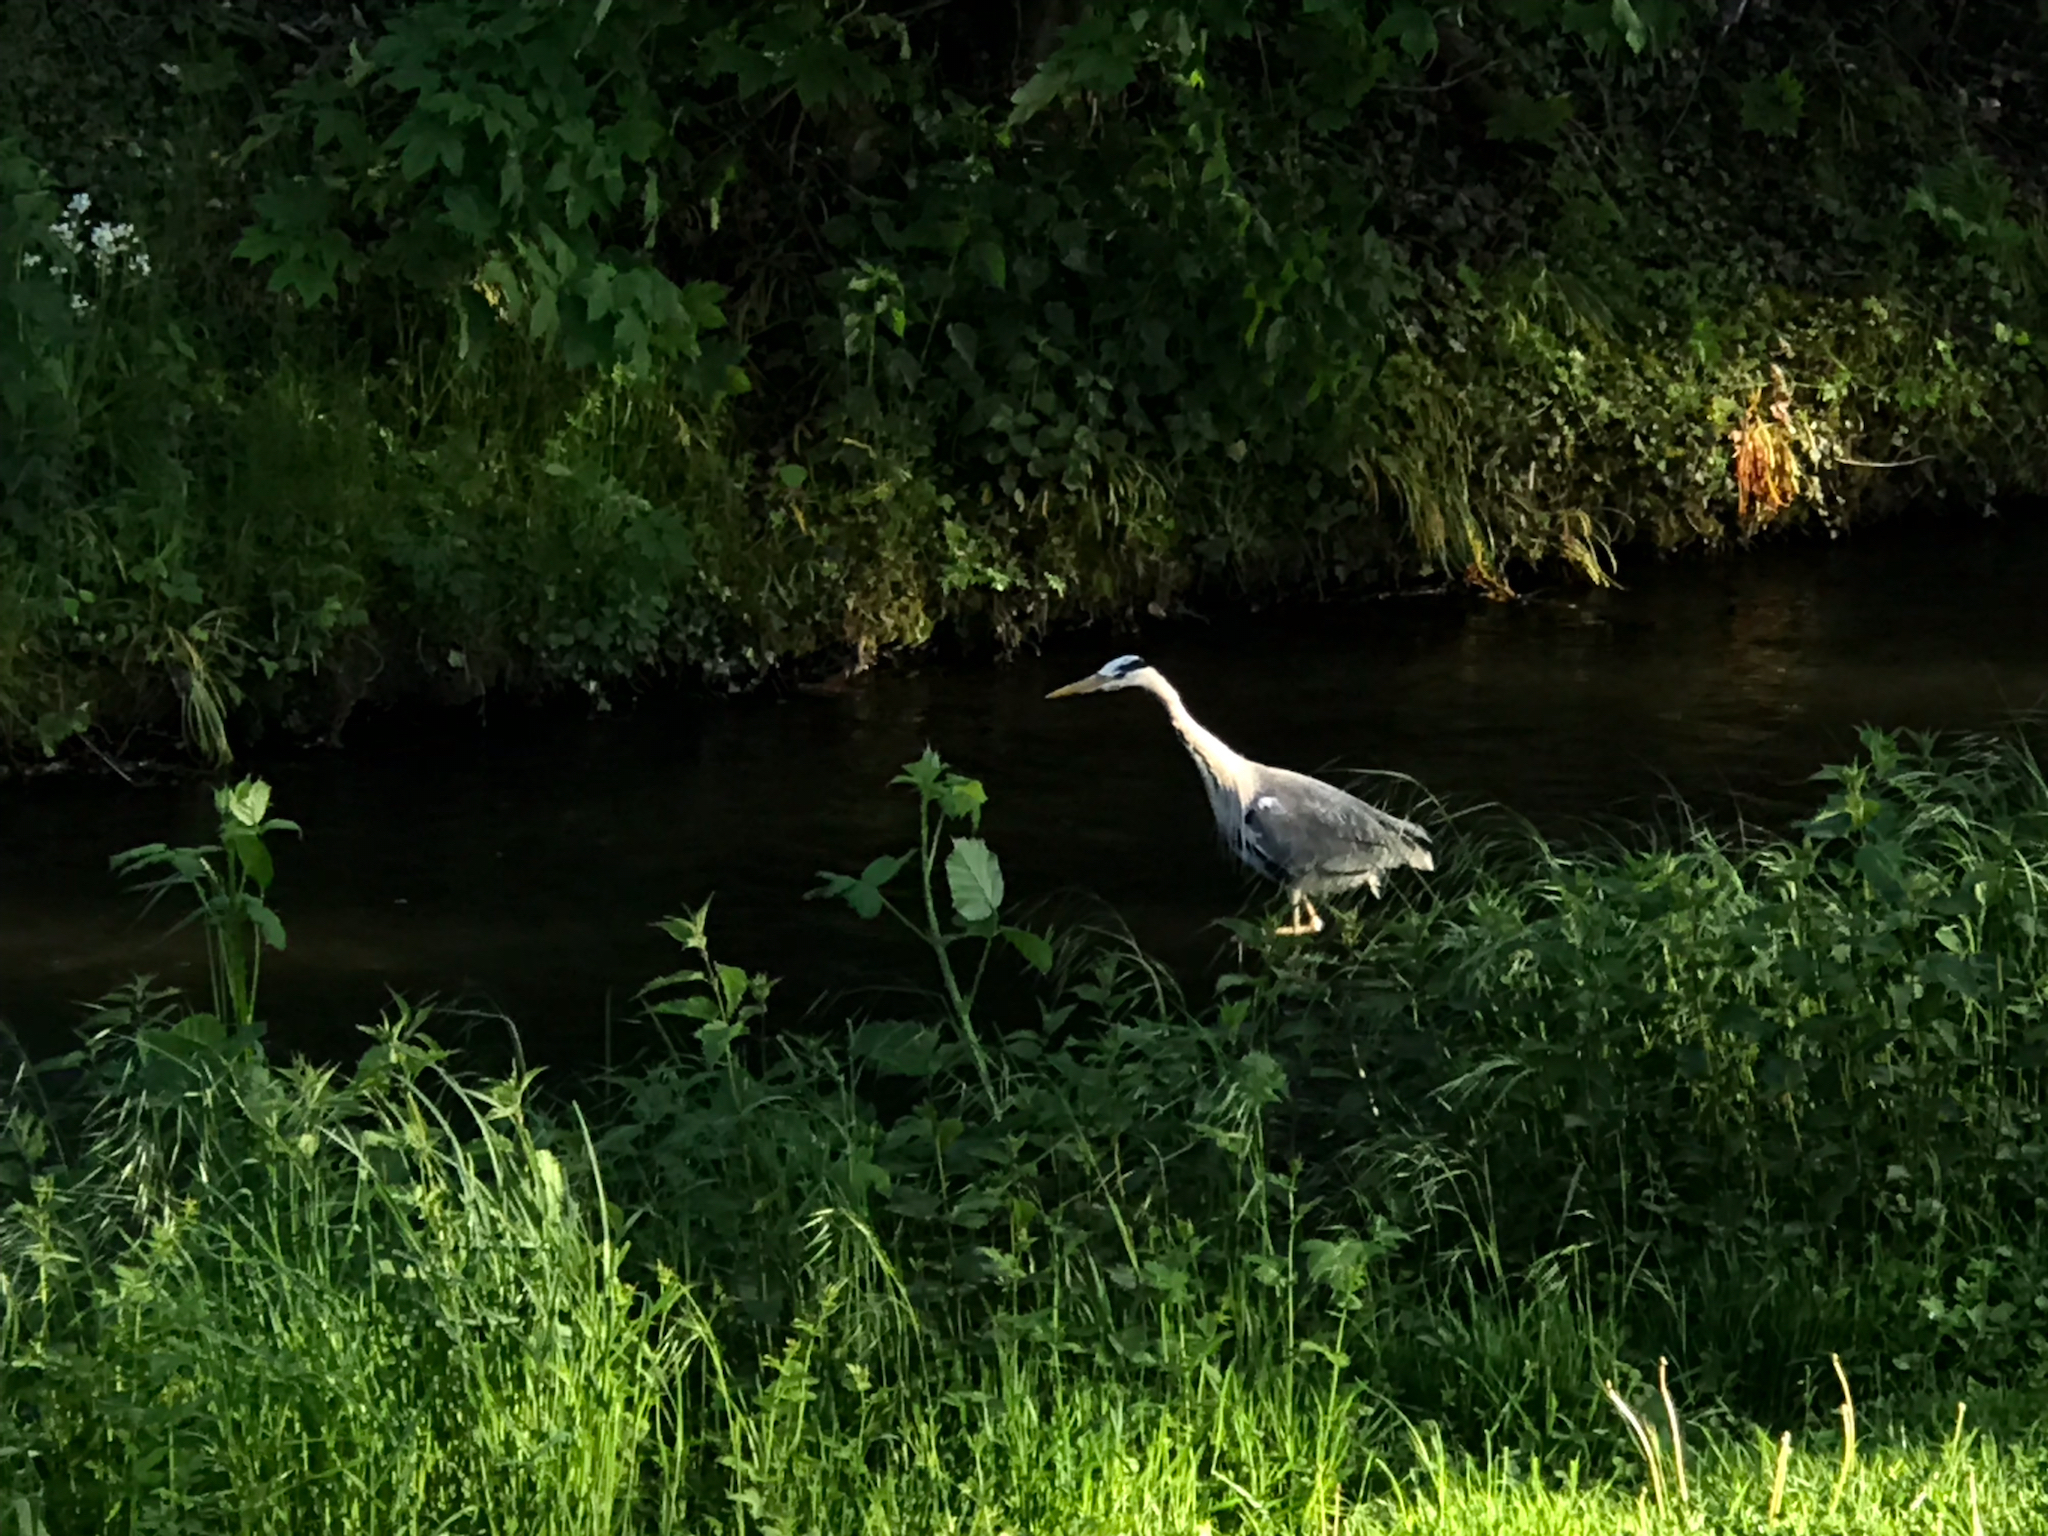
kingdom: Animalia
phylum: Chordata
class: Aves
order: Pelecaniformes
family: Ardeidae
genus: Ardea
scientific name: Ardea cinerea
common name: Grey heron
